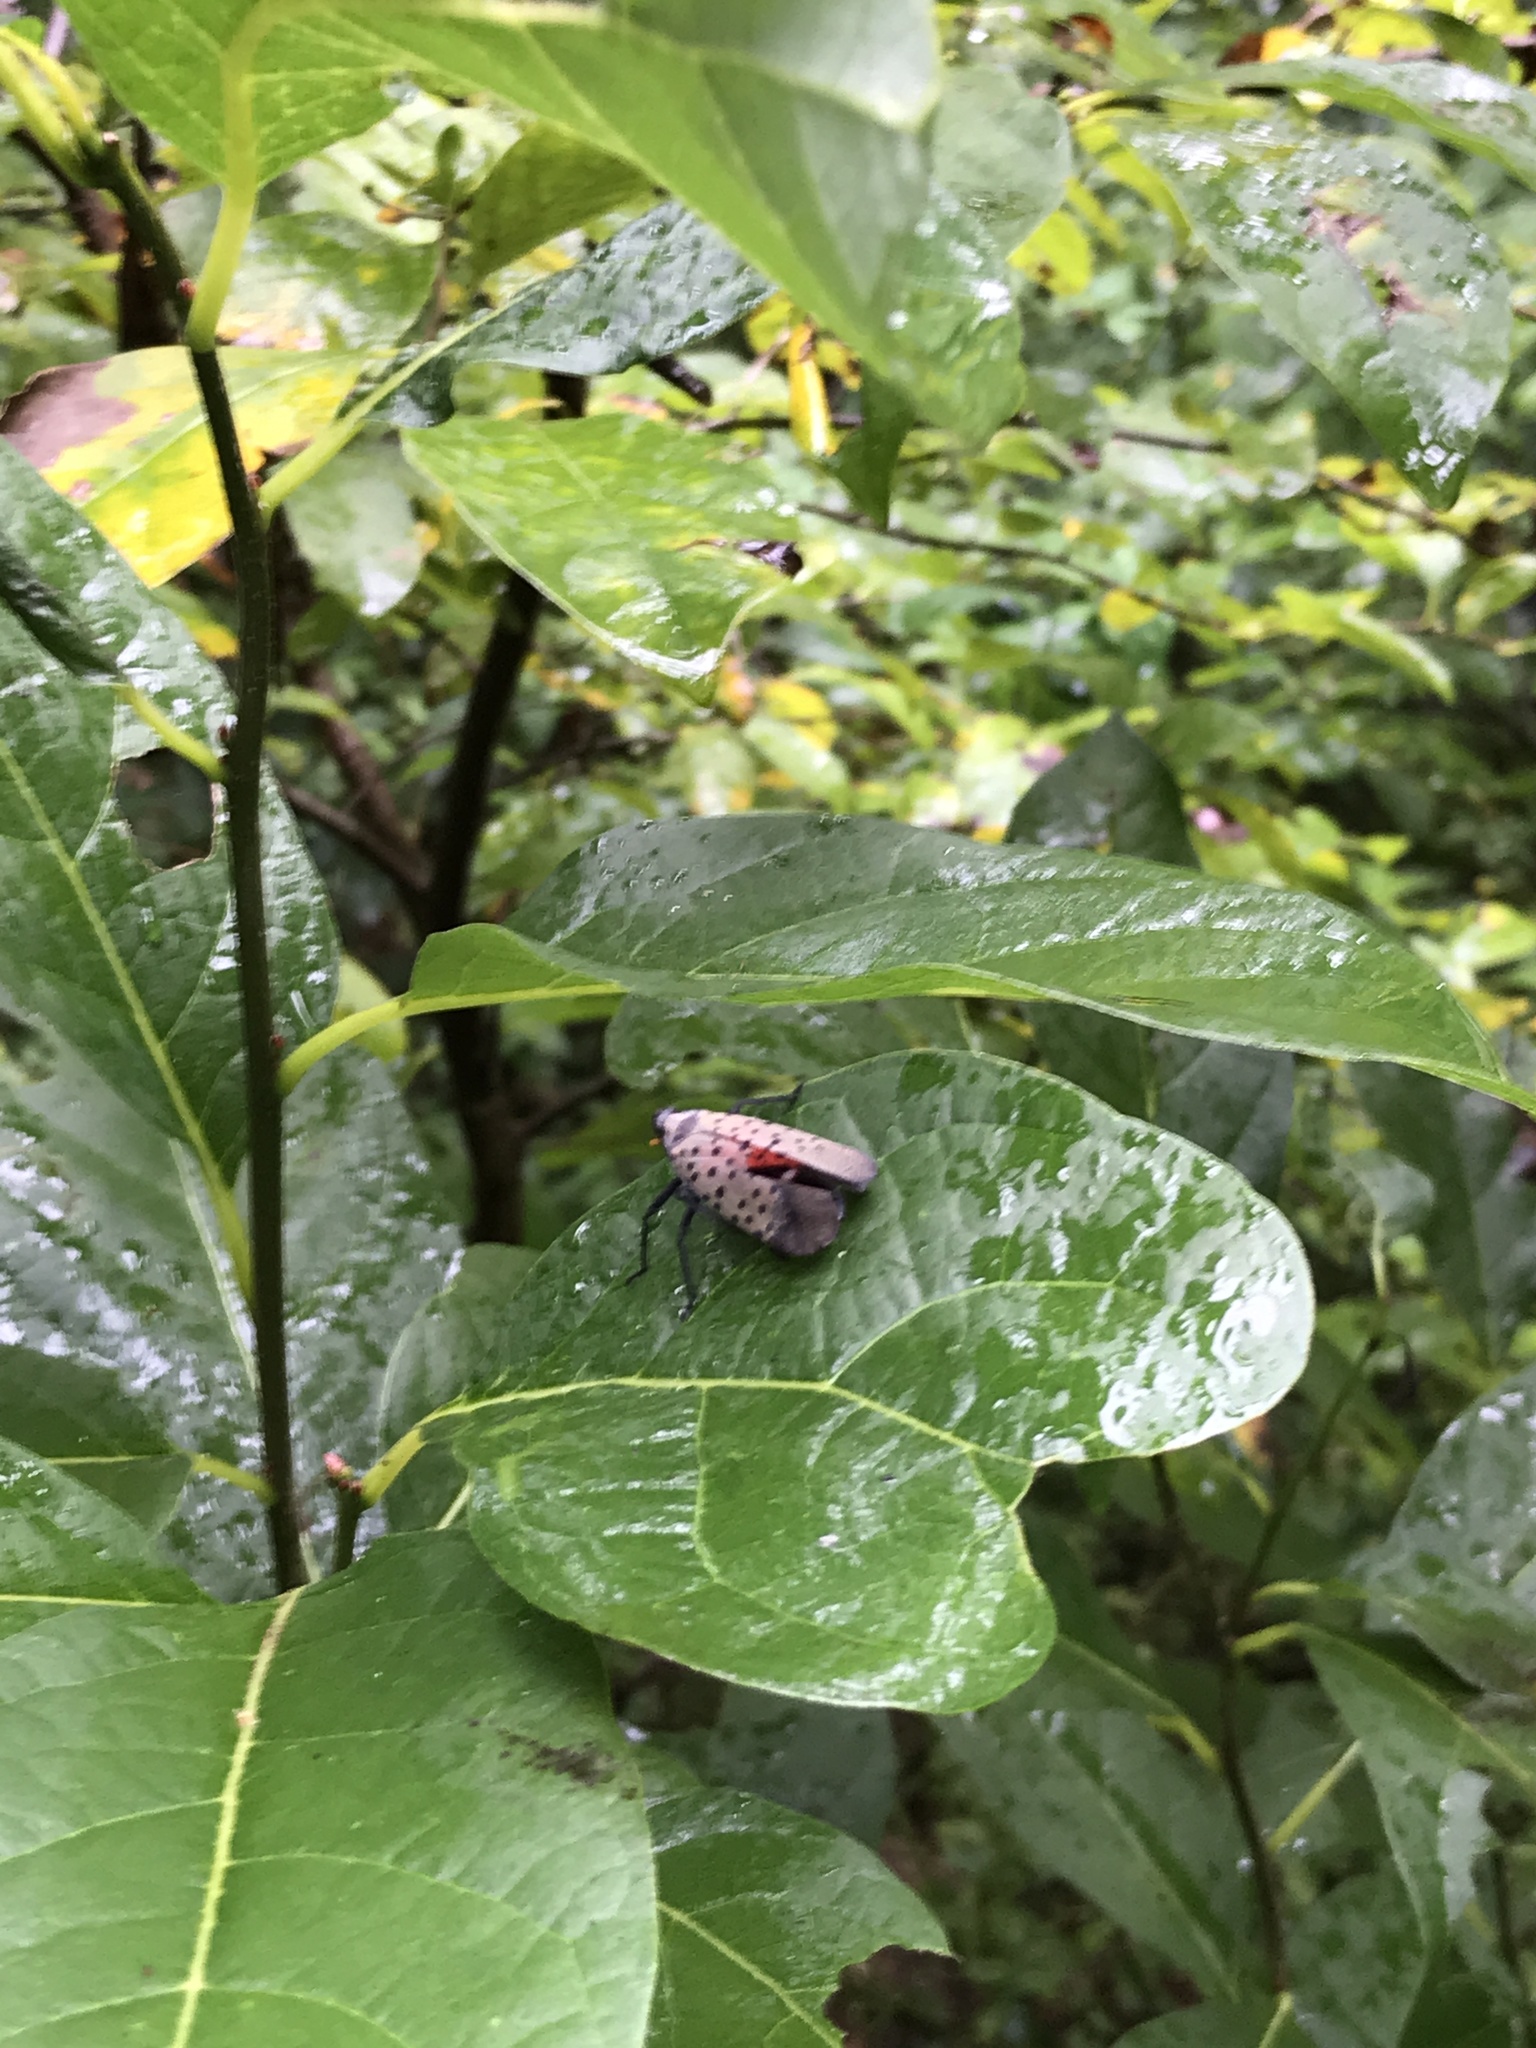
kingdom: Animalia
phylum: Arthropoda
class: Insecta
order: Hemiptera
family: Fulgoridae
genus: Lycorma
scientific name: Lycorma delicatula
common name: Spotted lanternfly
